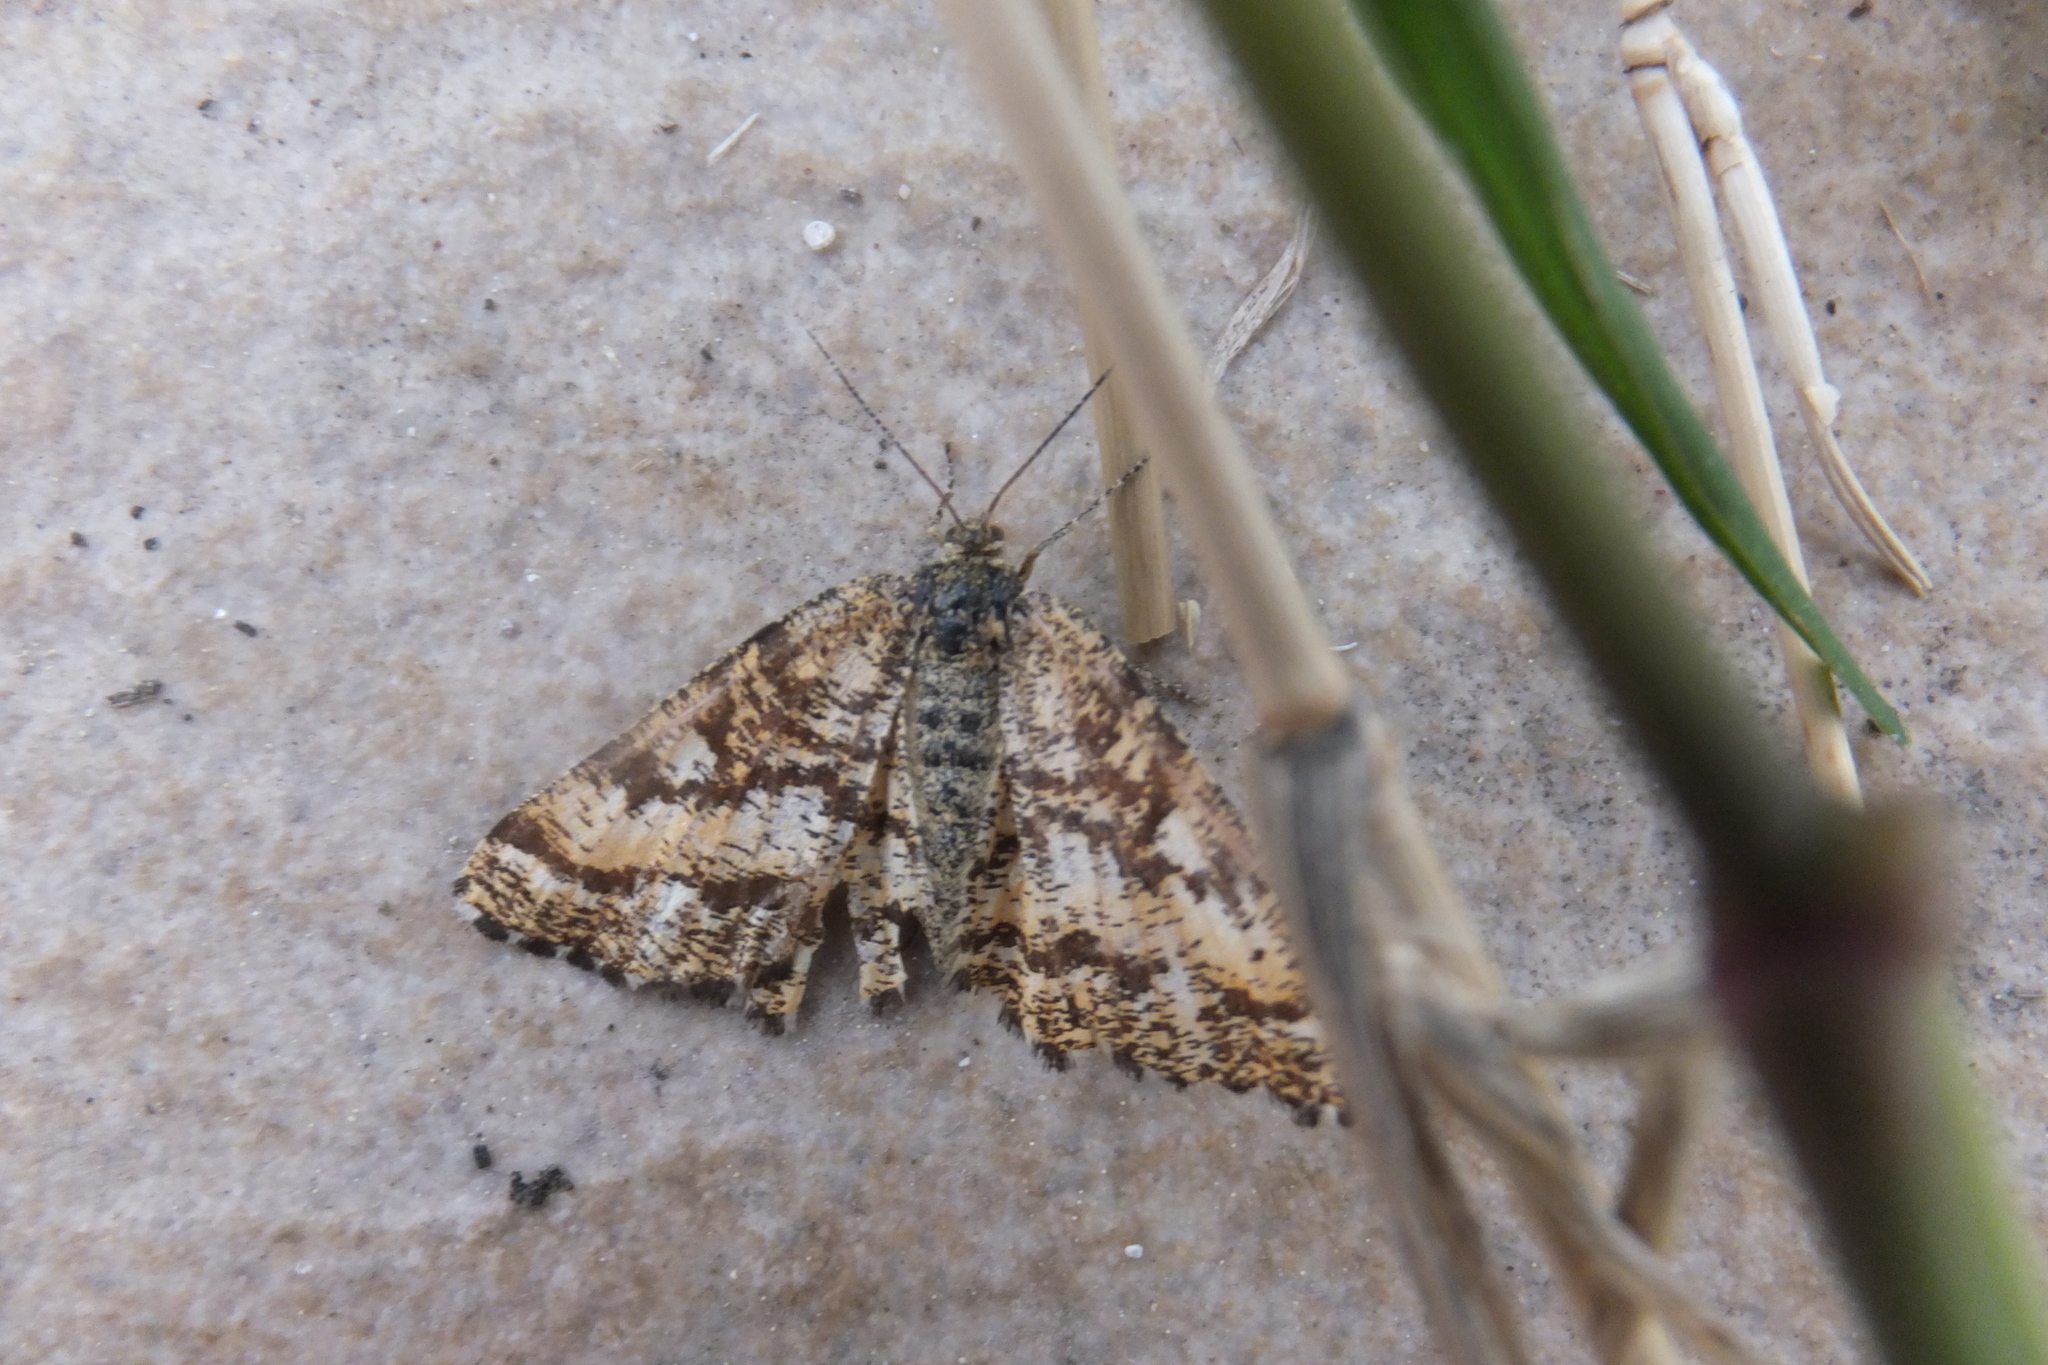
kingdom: Animalia
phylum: Arthropoda
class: Insecta
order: Lepidoptera
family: Geometridae
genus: Ematurga
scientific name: Ematurga atomaria
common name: Common heath
